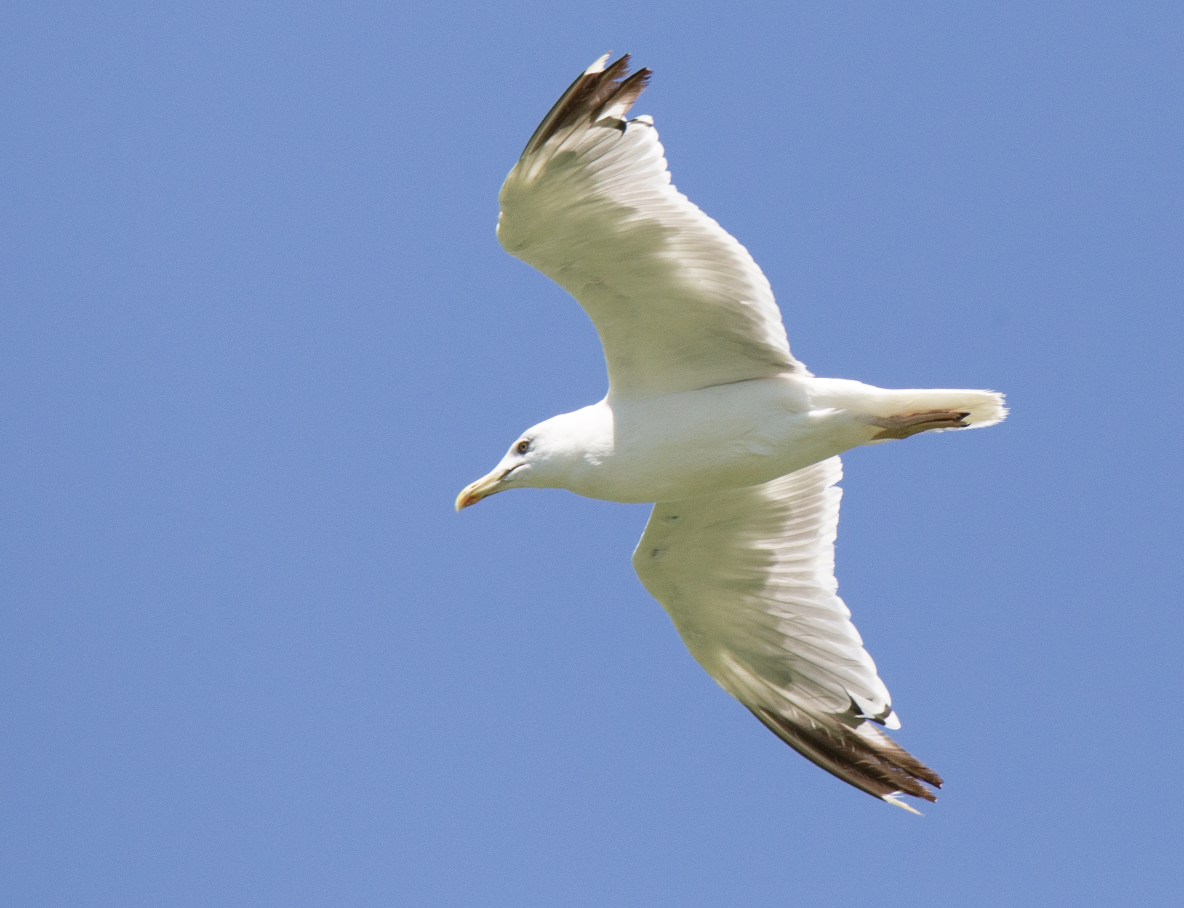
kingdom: Animalia
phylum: Chordata
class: Aves
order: Charadriiformes
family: Laridae
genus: Larus
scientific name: Larus michahellis
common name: Yellow-legged gull
